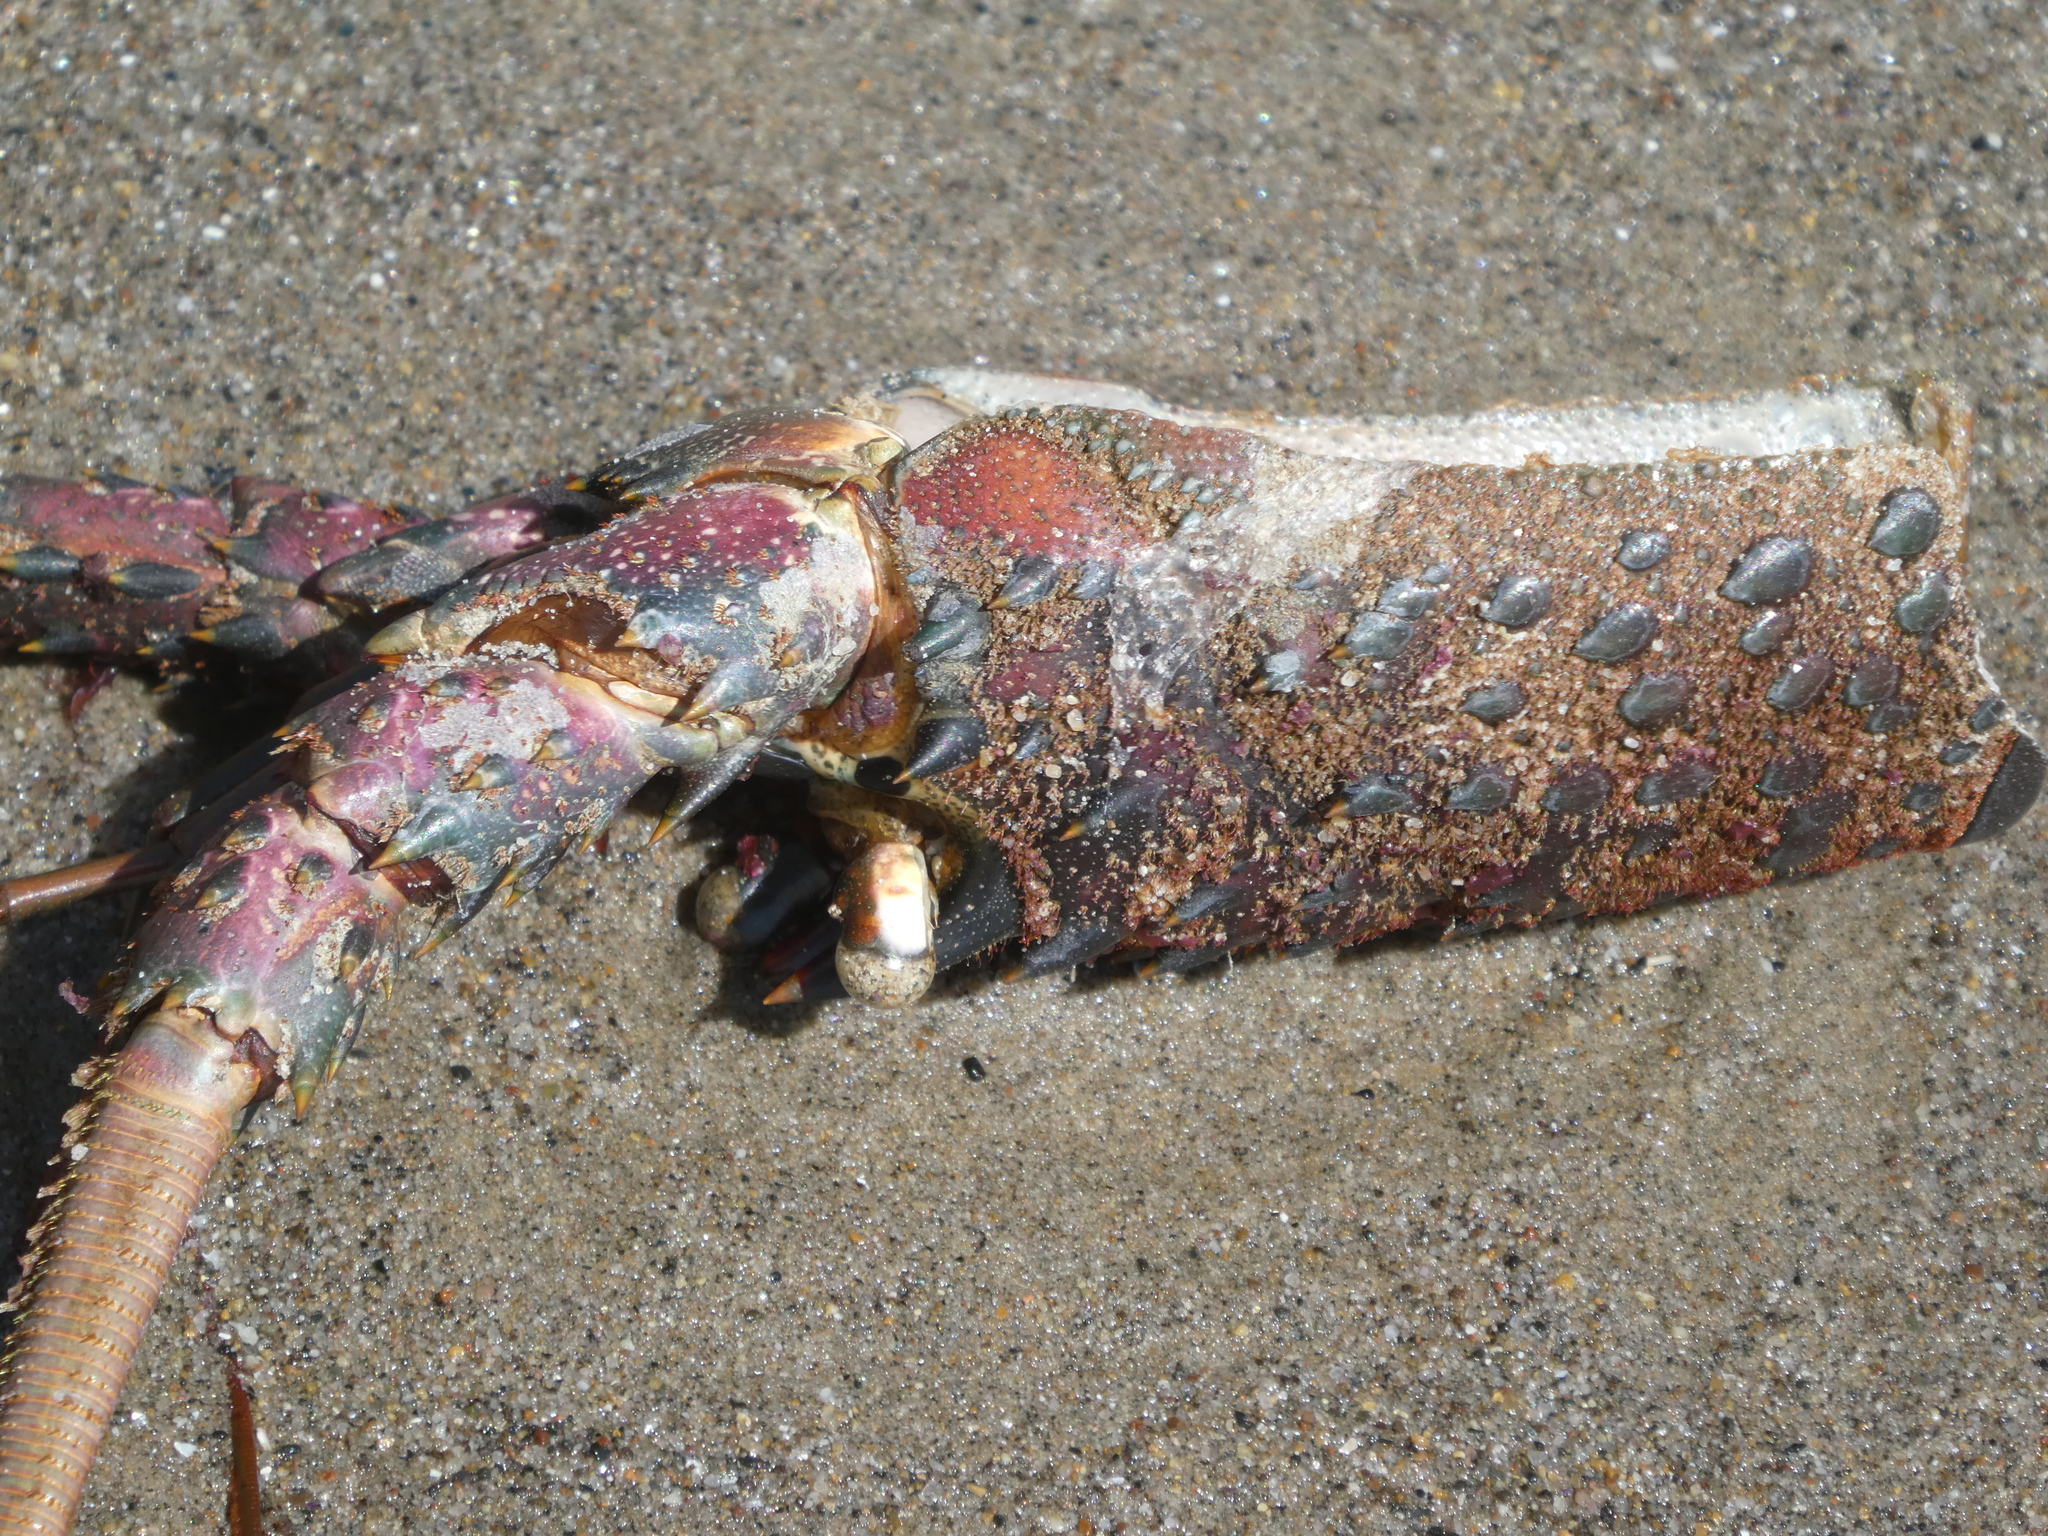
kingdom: Animalia
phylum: Arthropoda
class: Malacostraca
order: Decapoda
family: Palinuridae
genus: Panulirus
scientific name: Panulirus interruptus
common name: California spiny lobster
